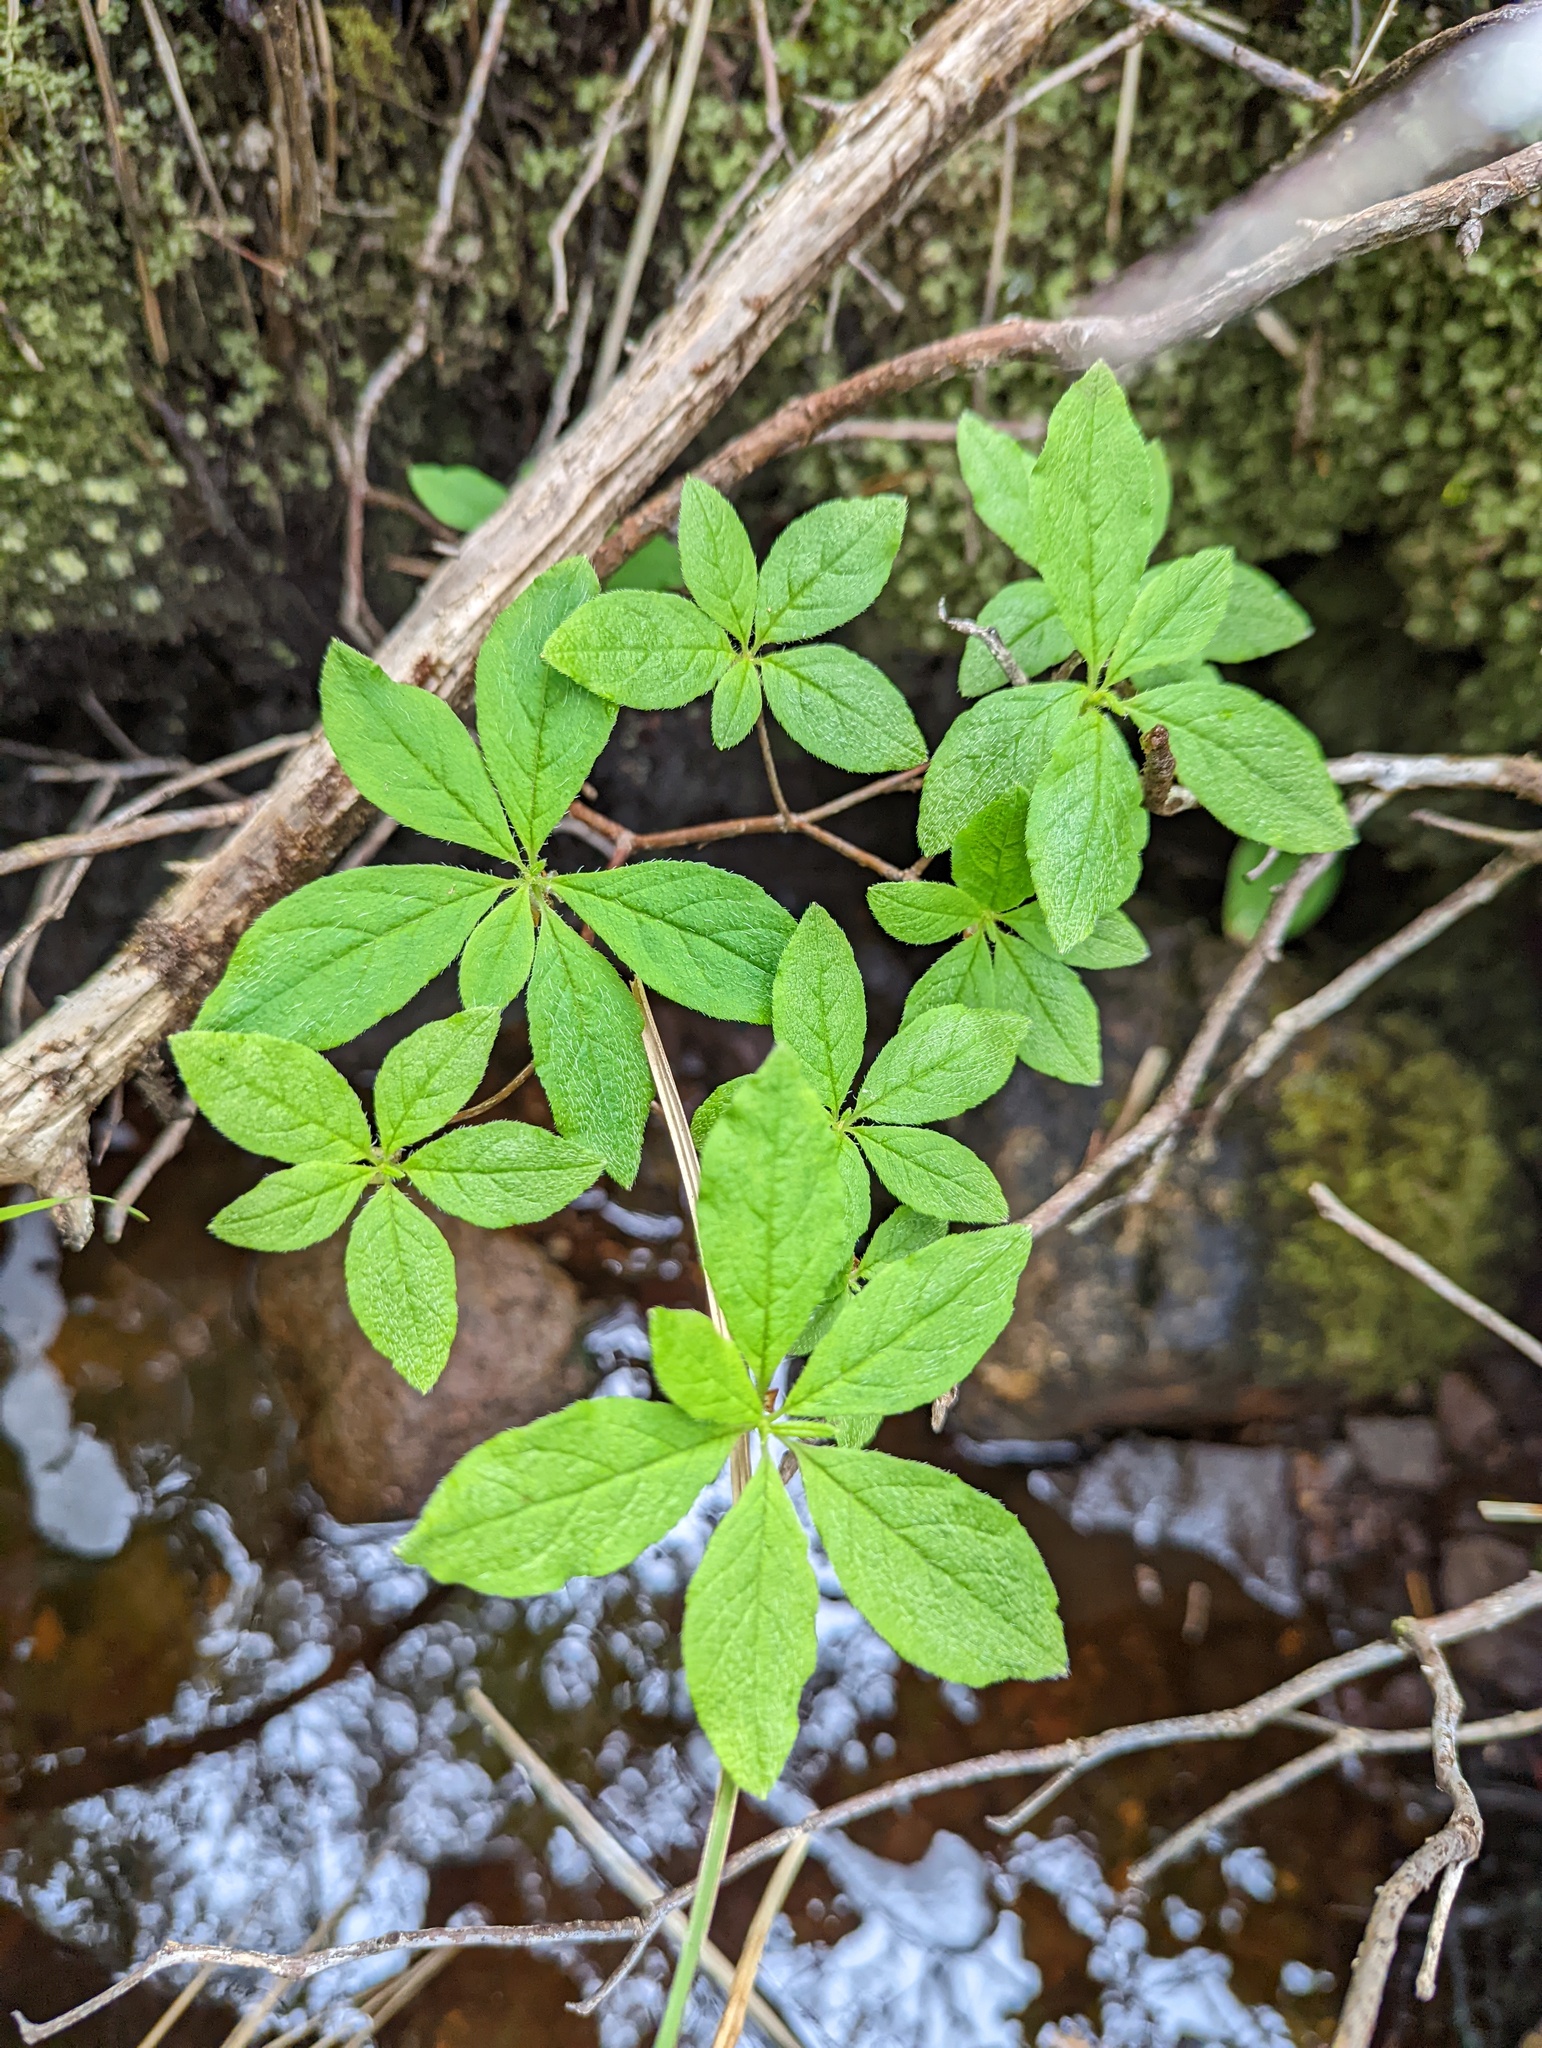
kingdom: Plantae
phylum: Tracheophyta
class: Magnoliopsida
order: Ericales
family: Ericaceae
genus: Rhododendron
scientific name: Rhododendron menziesii
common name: Pacific menziesia
